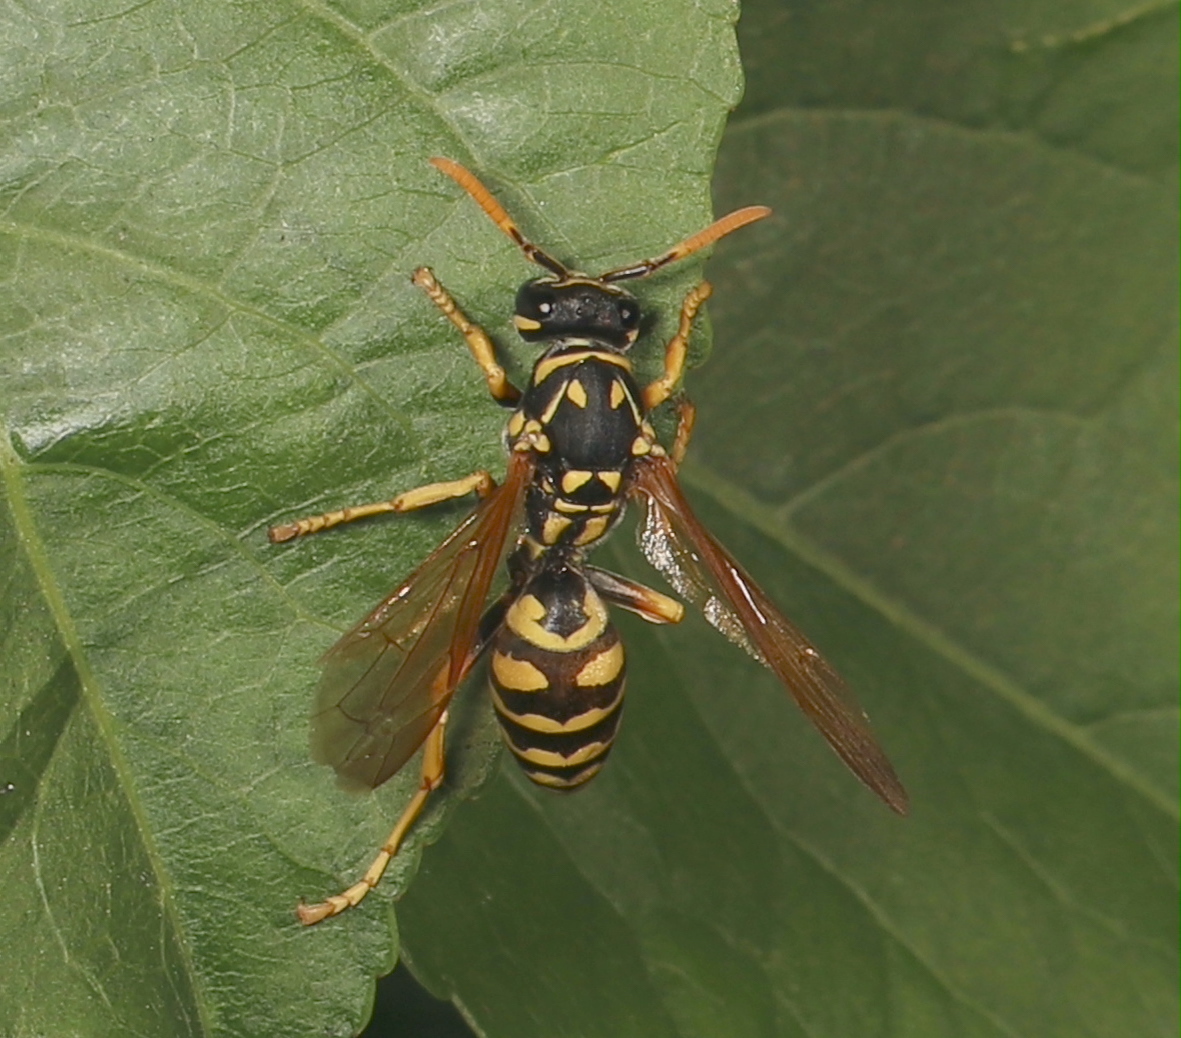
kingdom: Animalia
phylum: Arthropoda
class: Insecta
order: Hymenoptera
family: Eumenidae
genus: Polistes
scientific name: Polistes dominula
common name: Paper wasp
